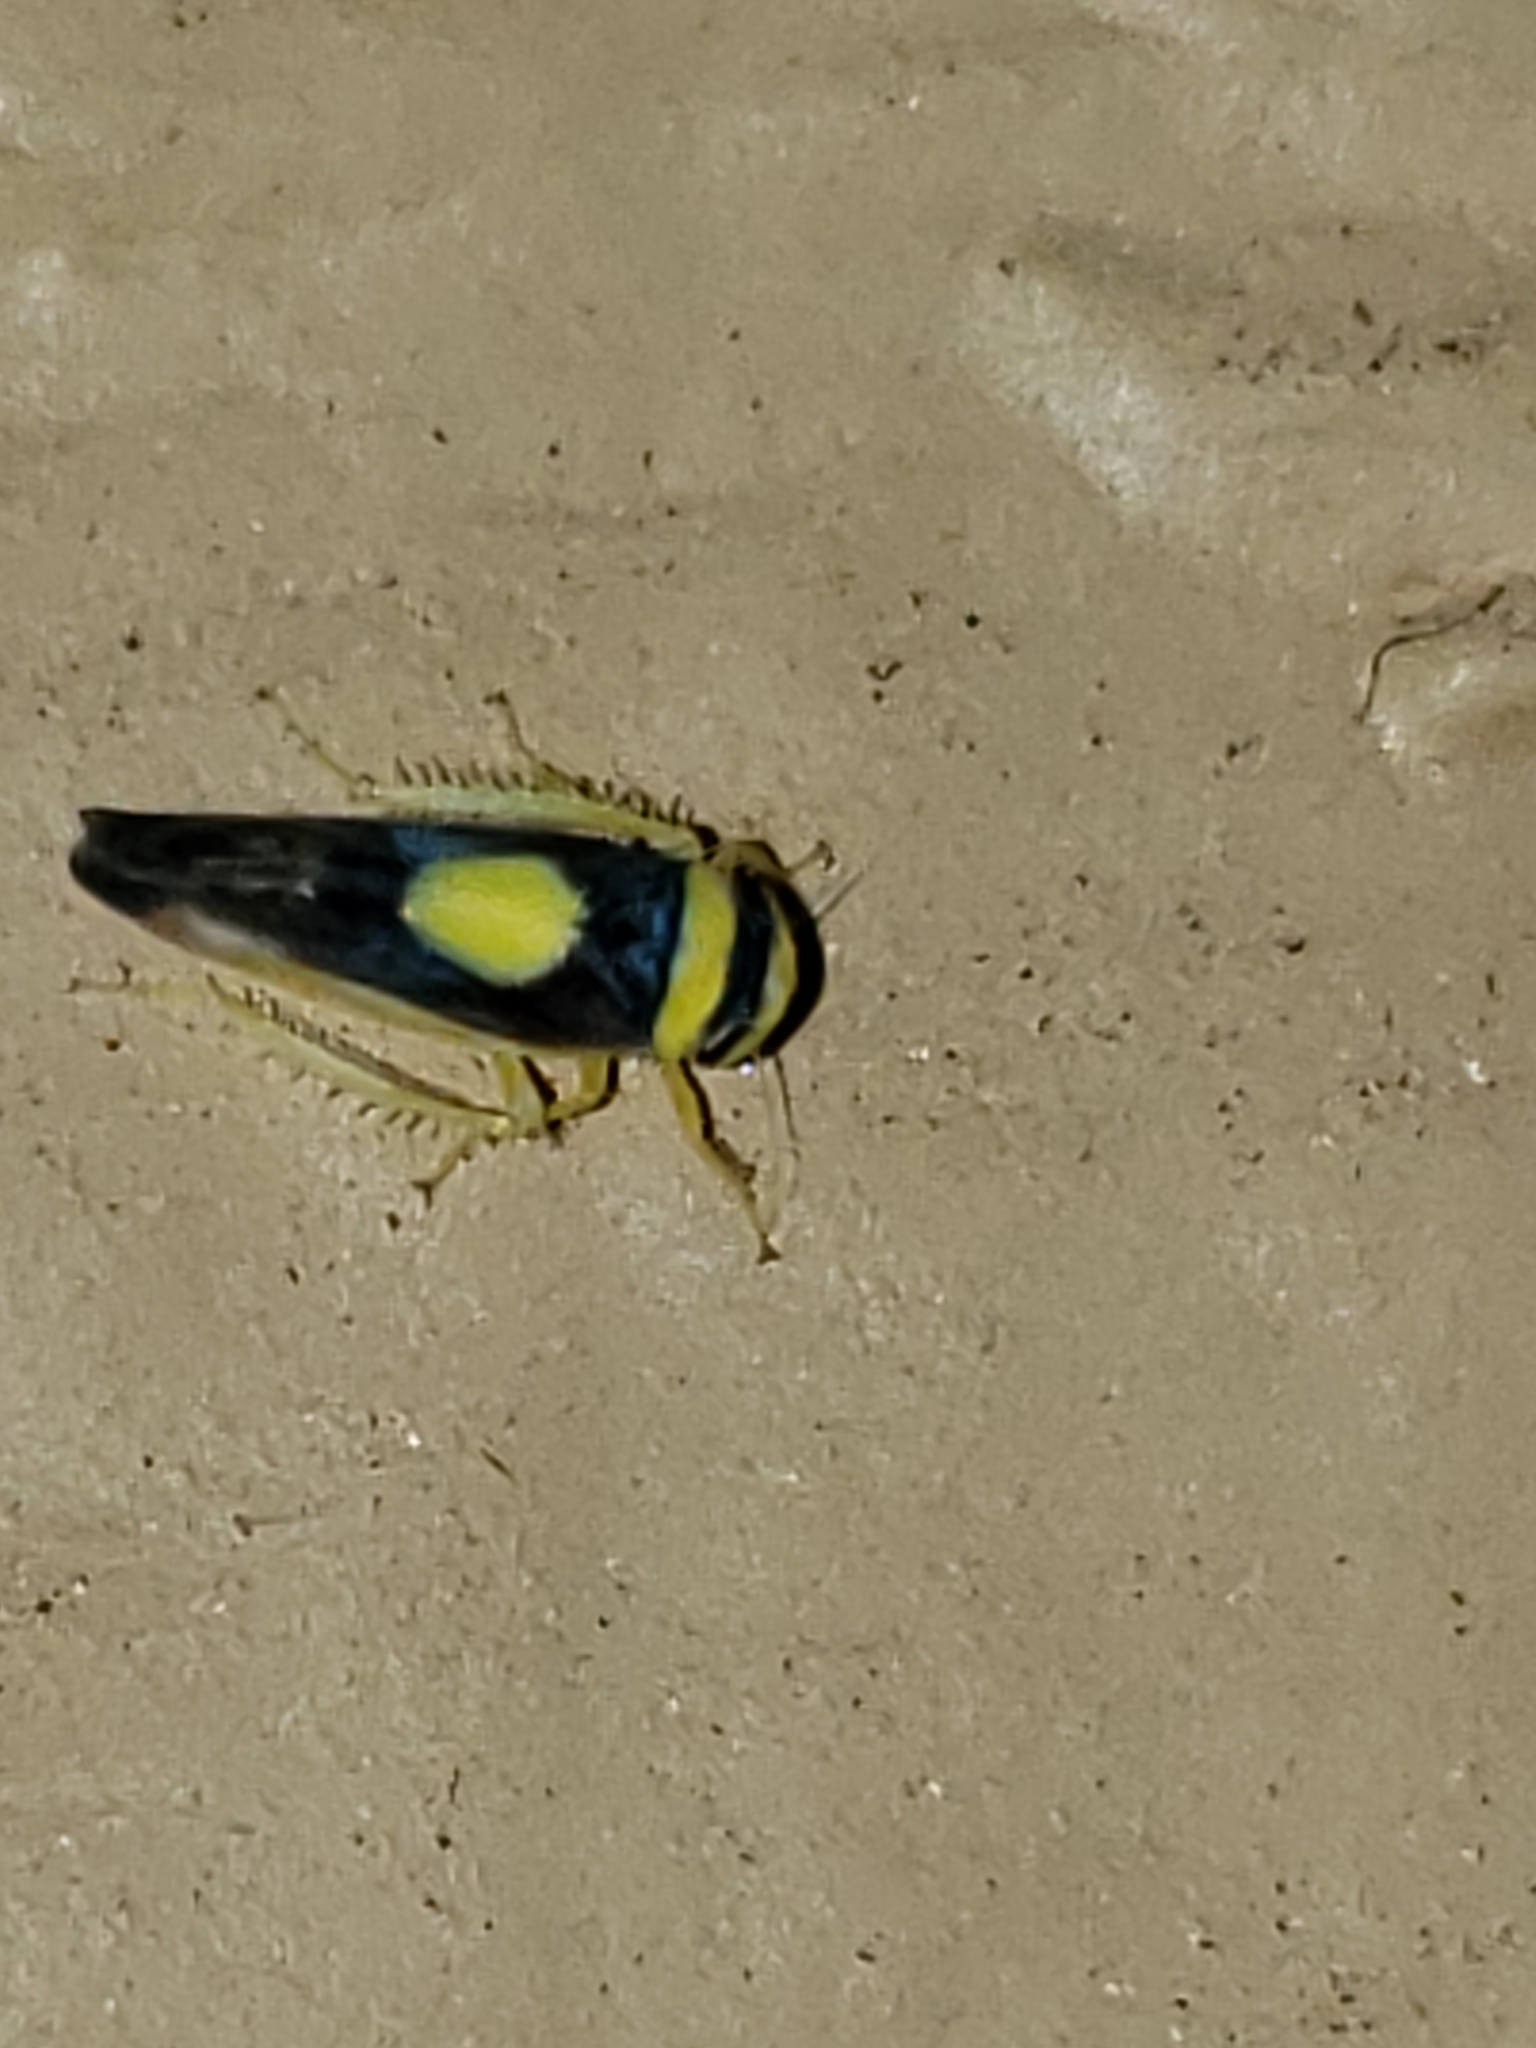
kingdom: Animalia
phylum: Arthropoda
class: Insecta
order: Hemiptera
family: Cicadellidae
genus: Colladonus
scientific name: Colladonus clitellarius
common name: The saddleback leafhopper
